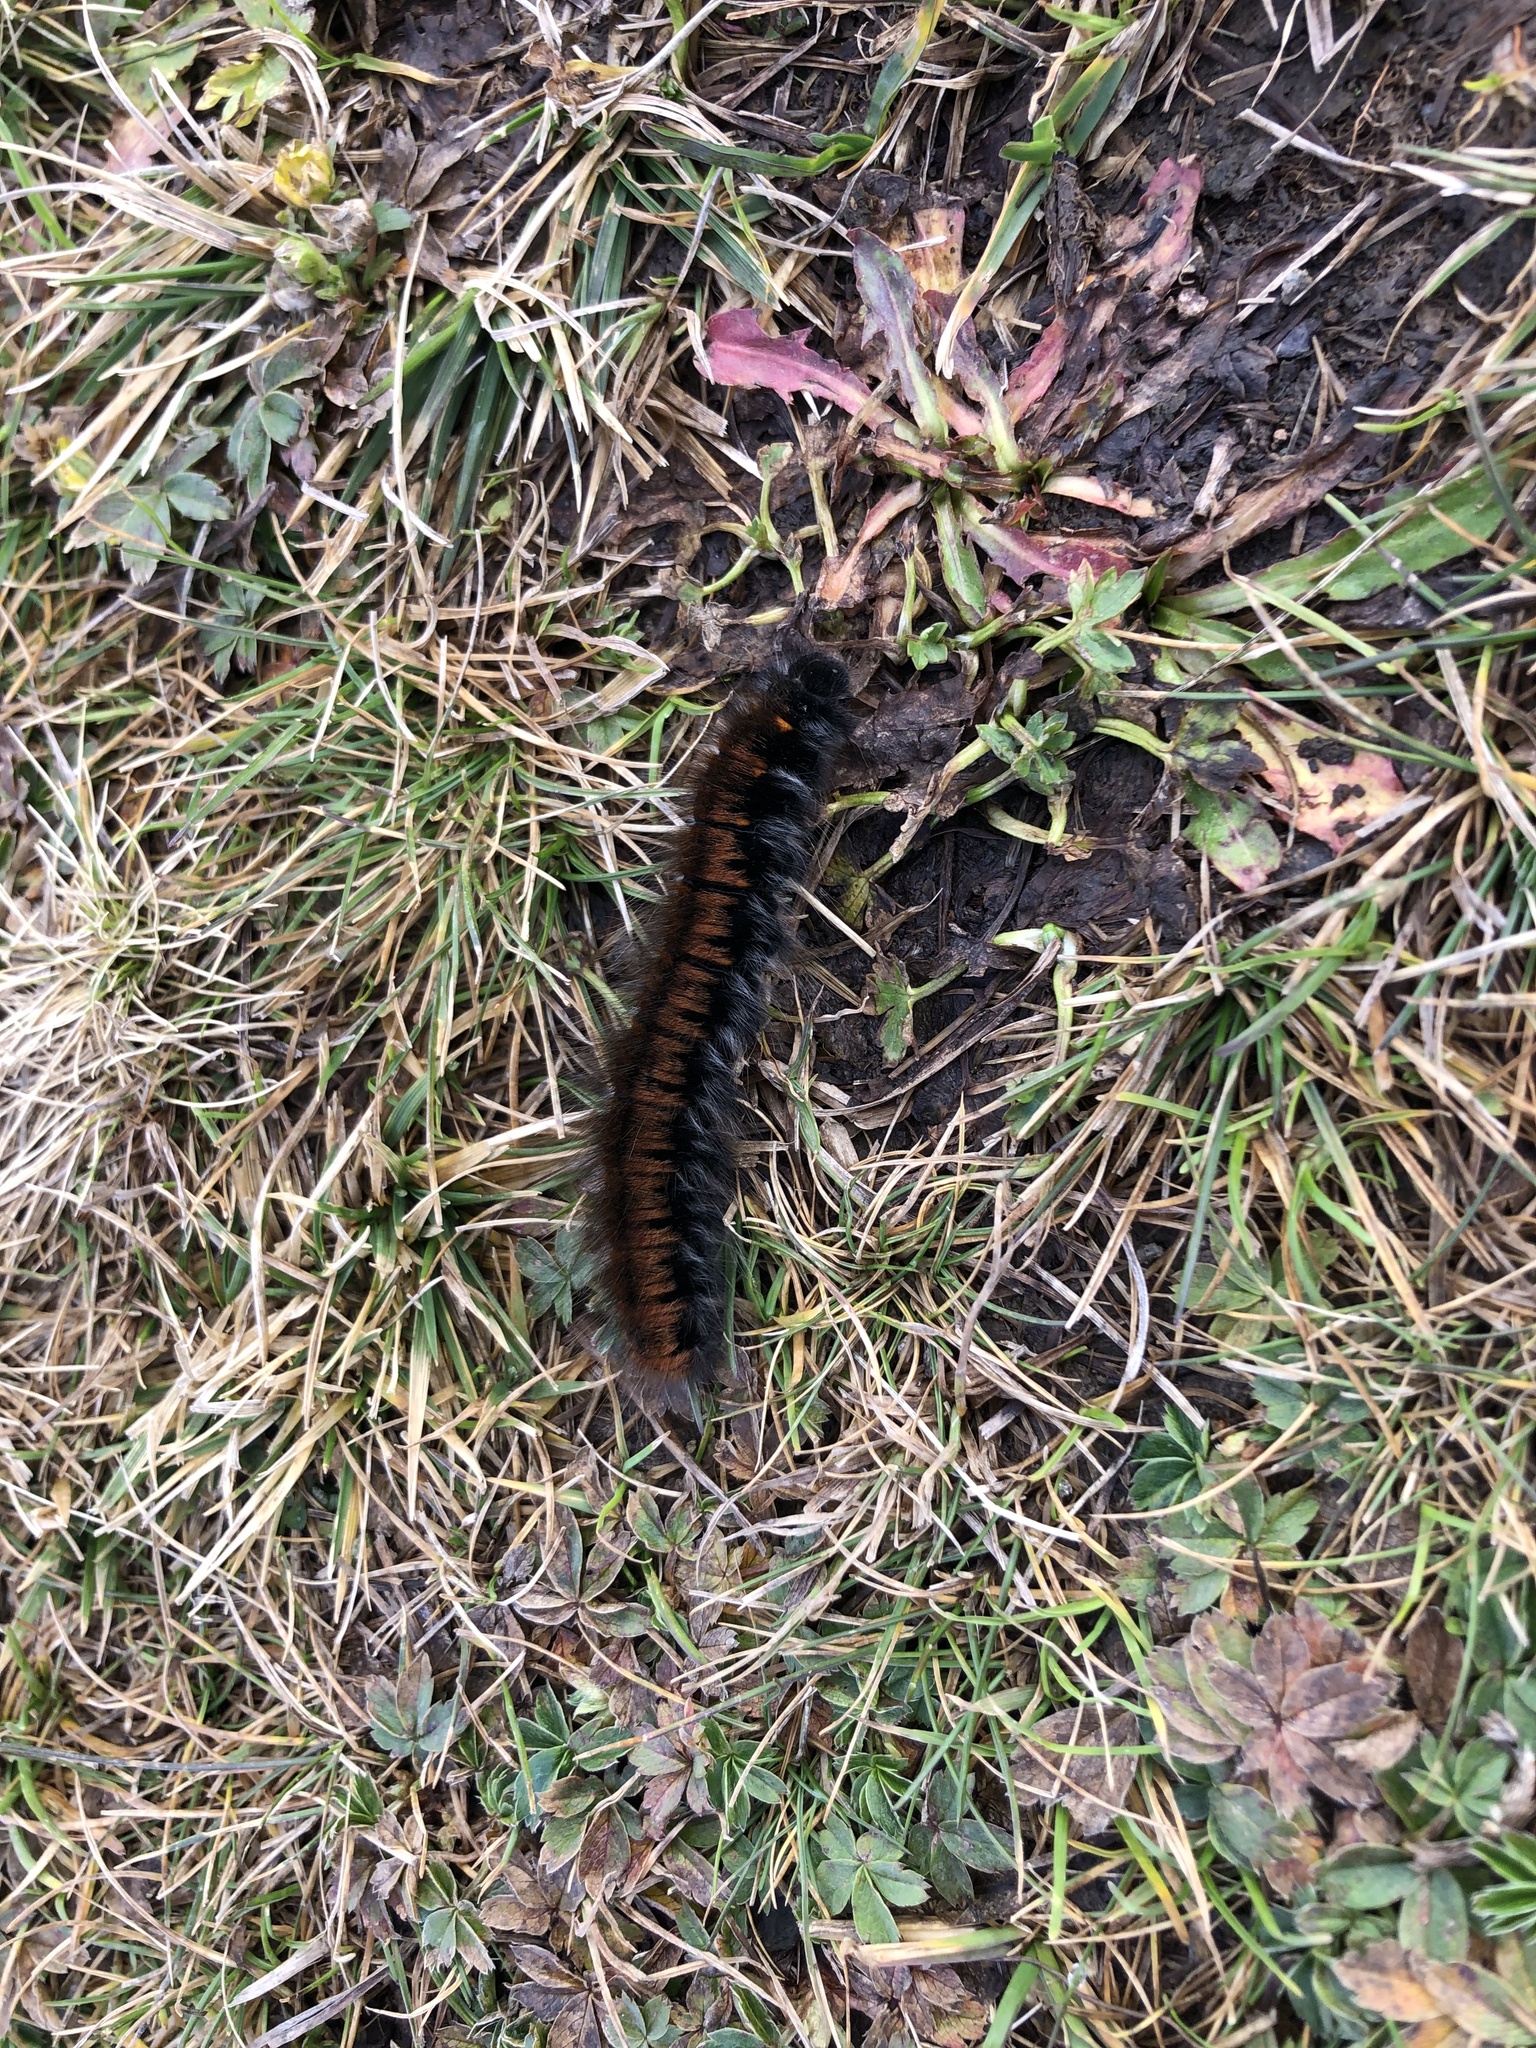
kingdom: Animalia
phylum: Arthropoda
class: Insecta
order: Lepidoptera
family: Lasiocampidae
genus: Macrothylacia
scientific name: Macrothylacia rubi
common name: Fox moth
